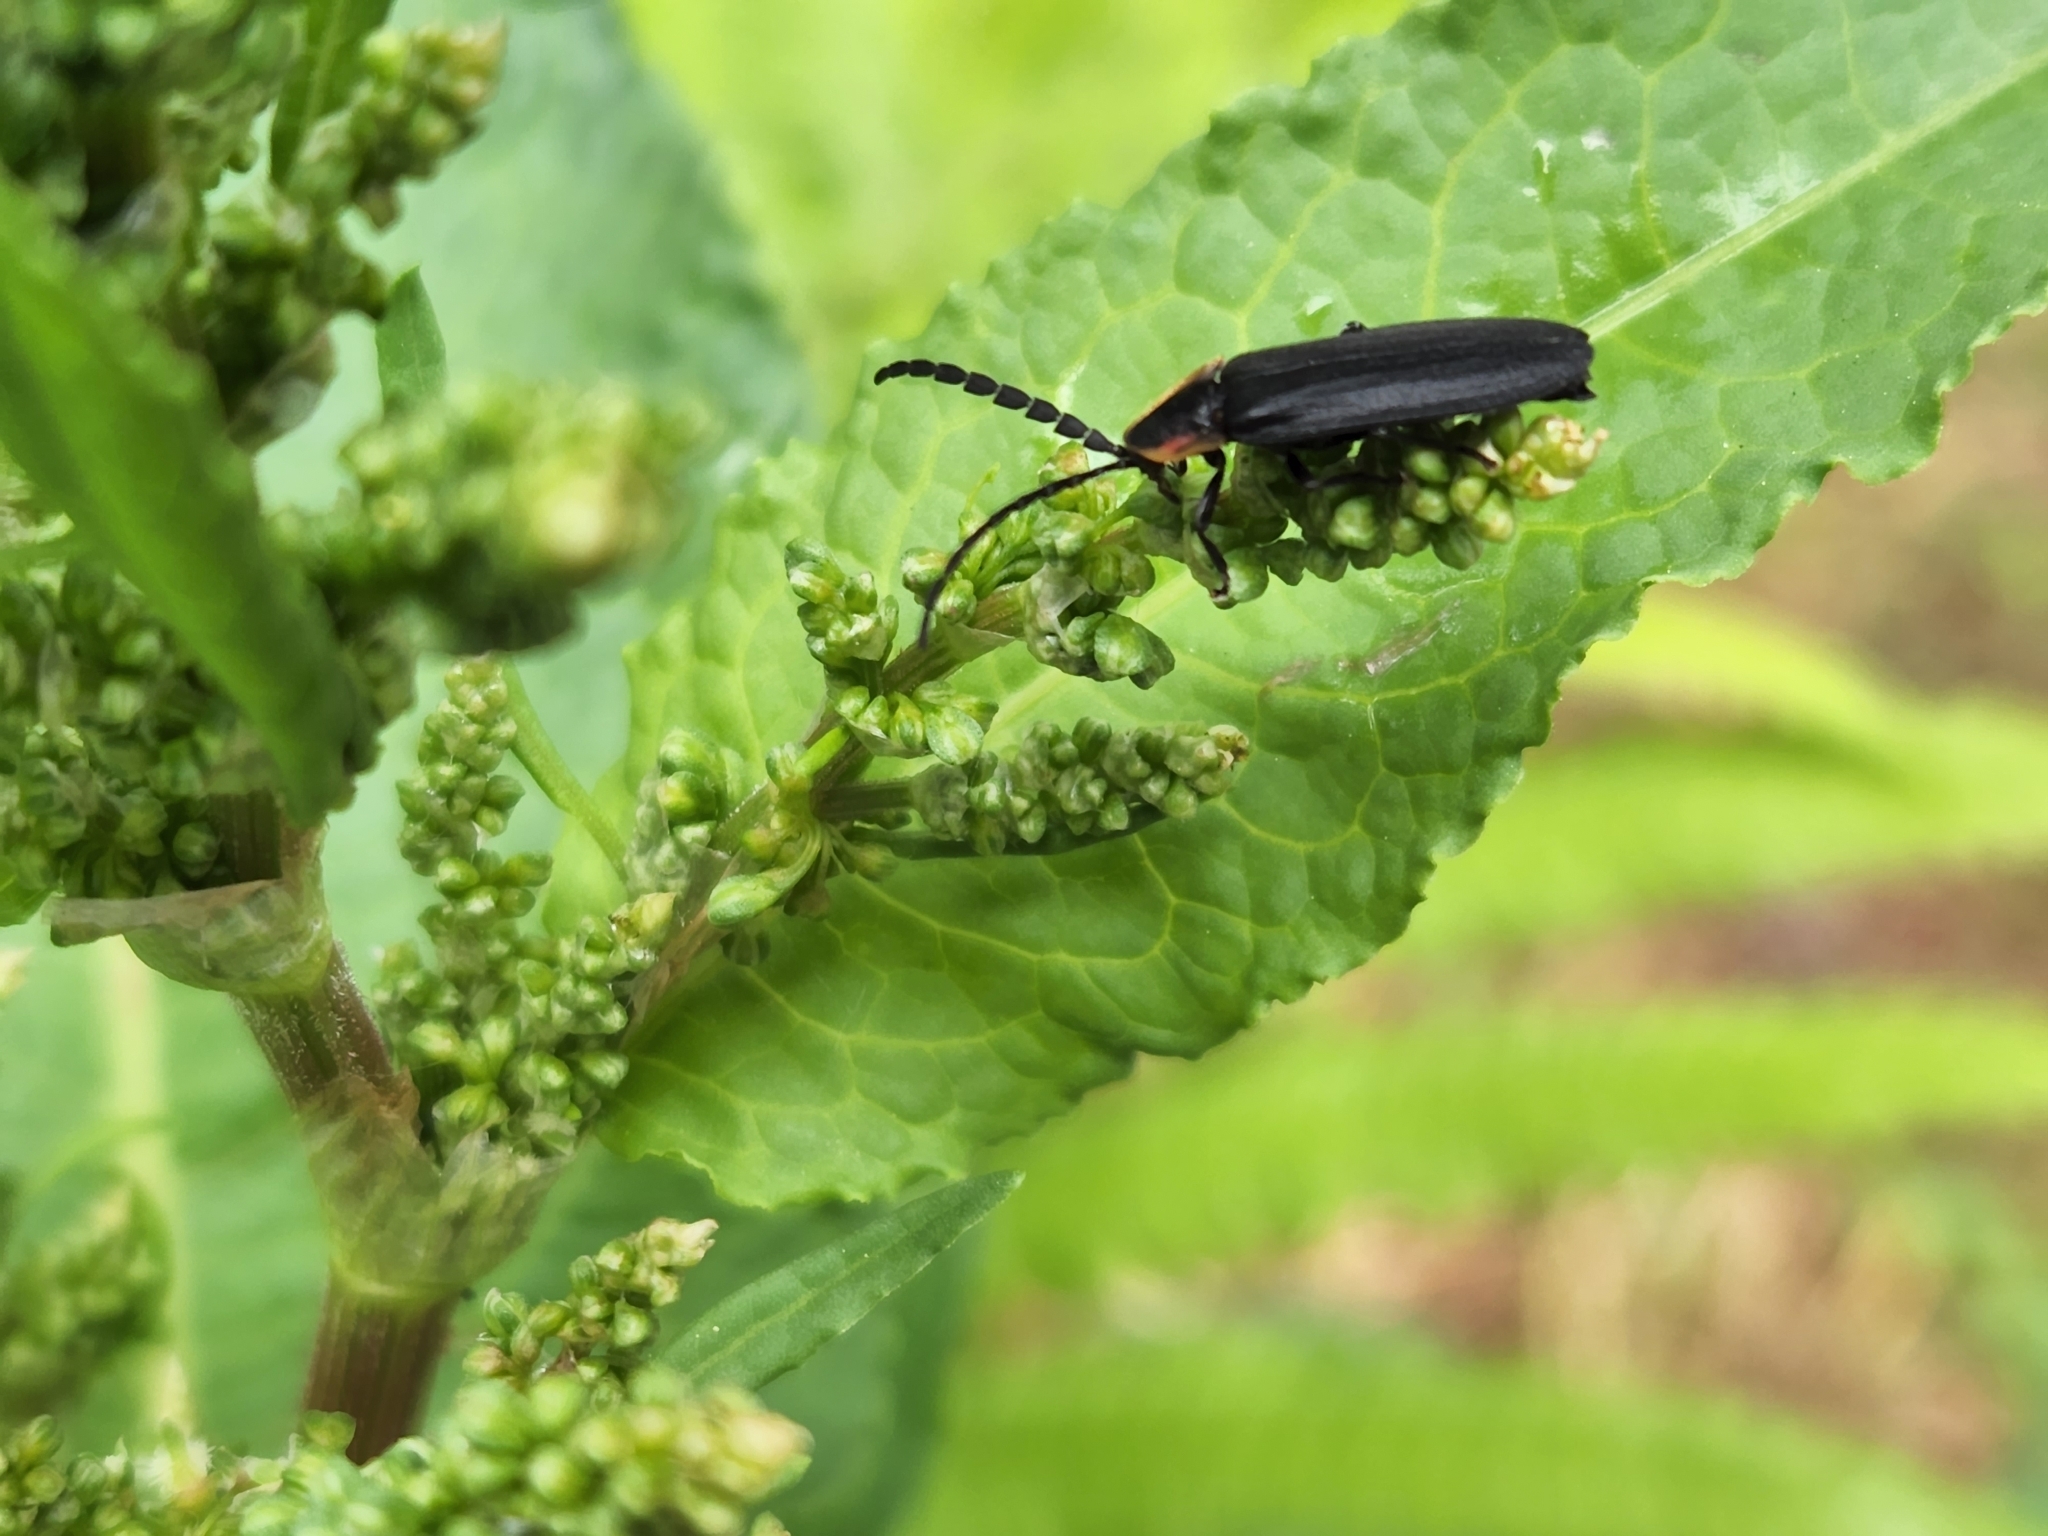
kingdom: Animalia
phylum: Arthropoda
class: Insecta
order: Coleoptera
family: Lampyridae
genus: Lucidota
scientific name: Lucidota atra
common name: Black firefly
